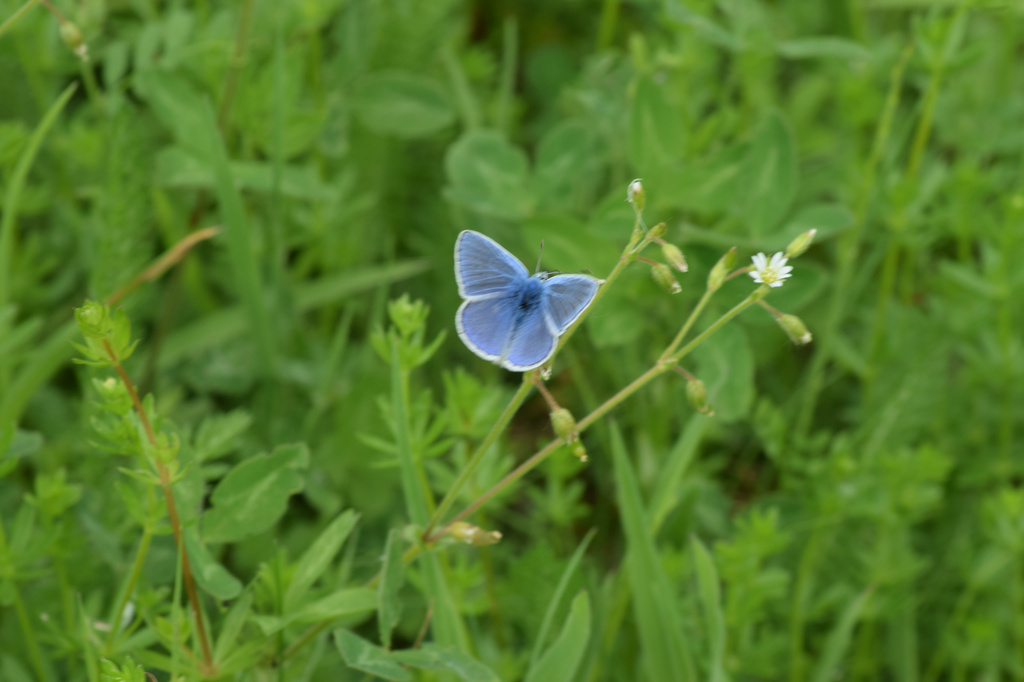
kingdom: Animalia
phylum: Arthropoda
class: Insecta
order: Lepidoptera
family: Lycaenidae
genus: Polyommatus
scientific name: Polyommatus icarus
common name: Common blue
